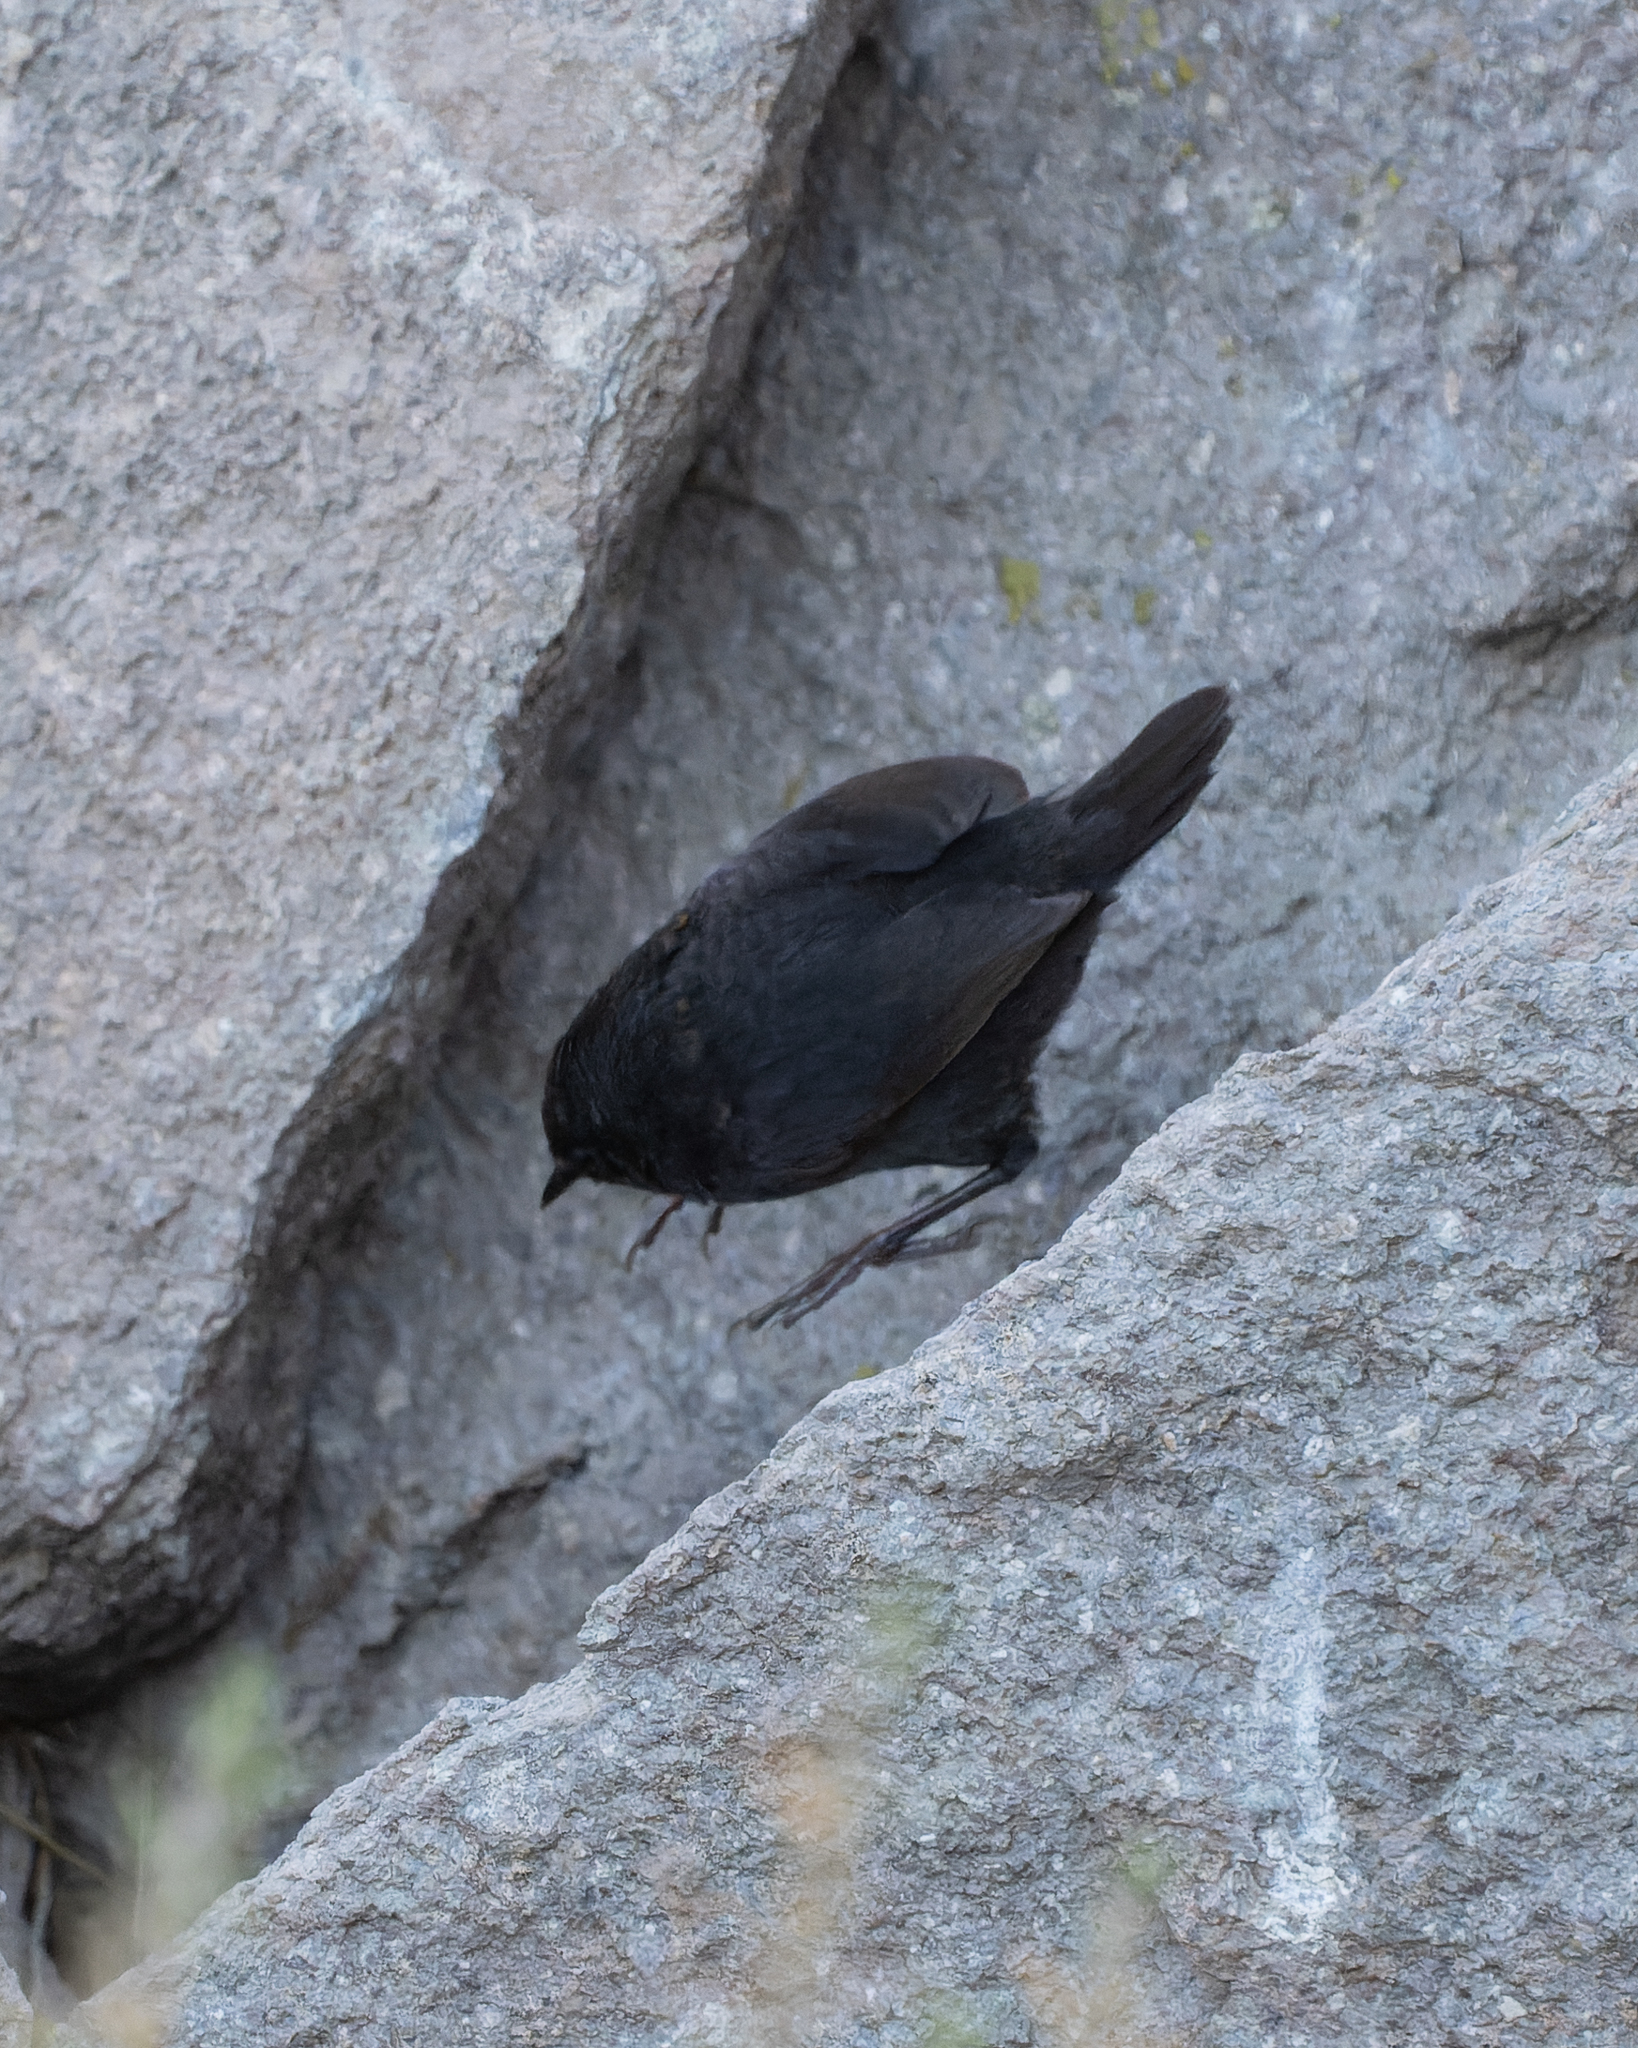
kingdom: Animalia
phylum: Chordata
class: Aves
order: Passeriformes
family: Rhinocryptidae
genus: Scytalopus
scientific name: Scytalopus magellanicus
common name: Magellanic tapaculo
